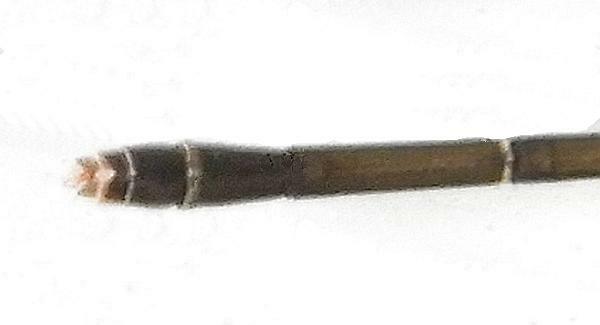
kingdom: Animalia
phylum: Arthropoda
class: Insecta
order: Odonata
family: Coenagrionidae
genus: Ischnura
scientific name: Ischnura posita
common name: Fragile forktail
